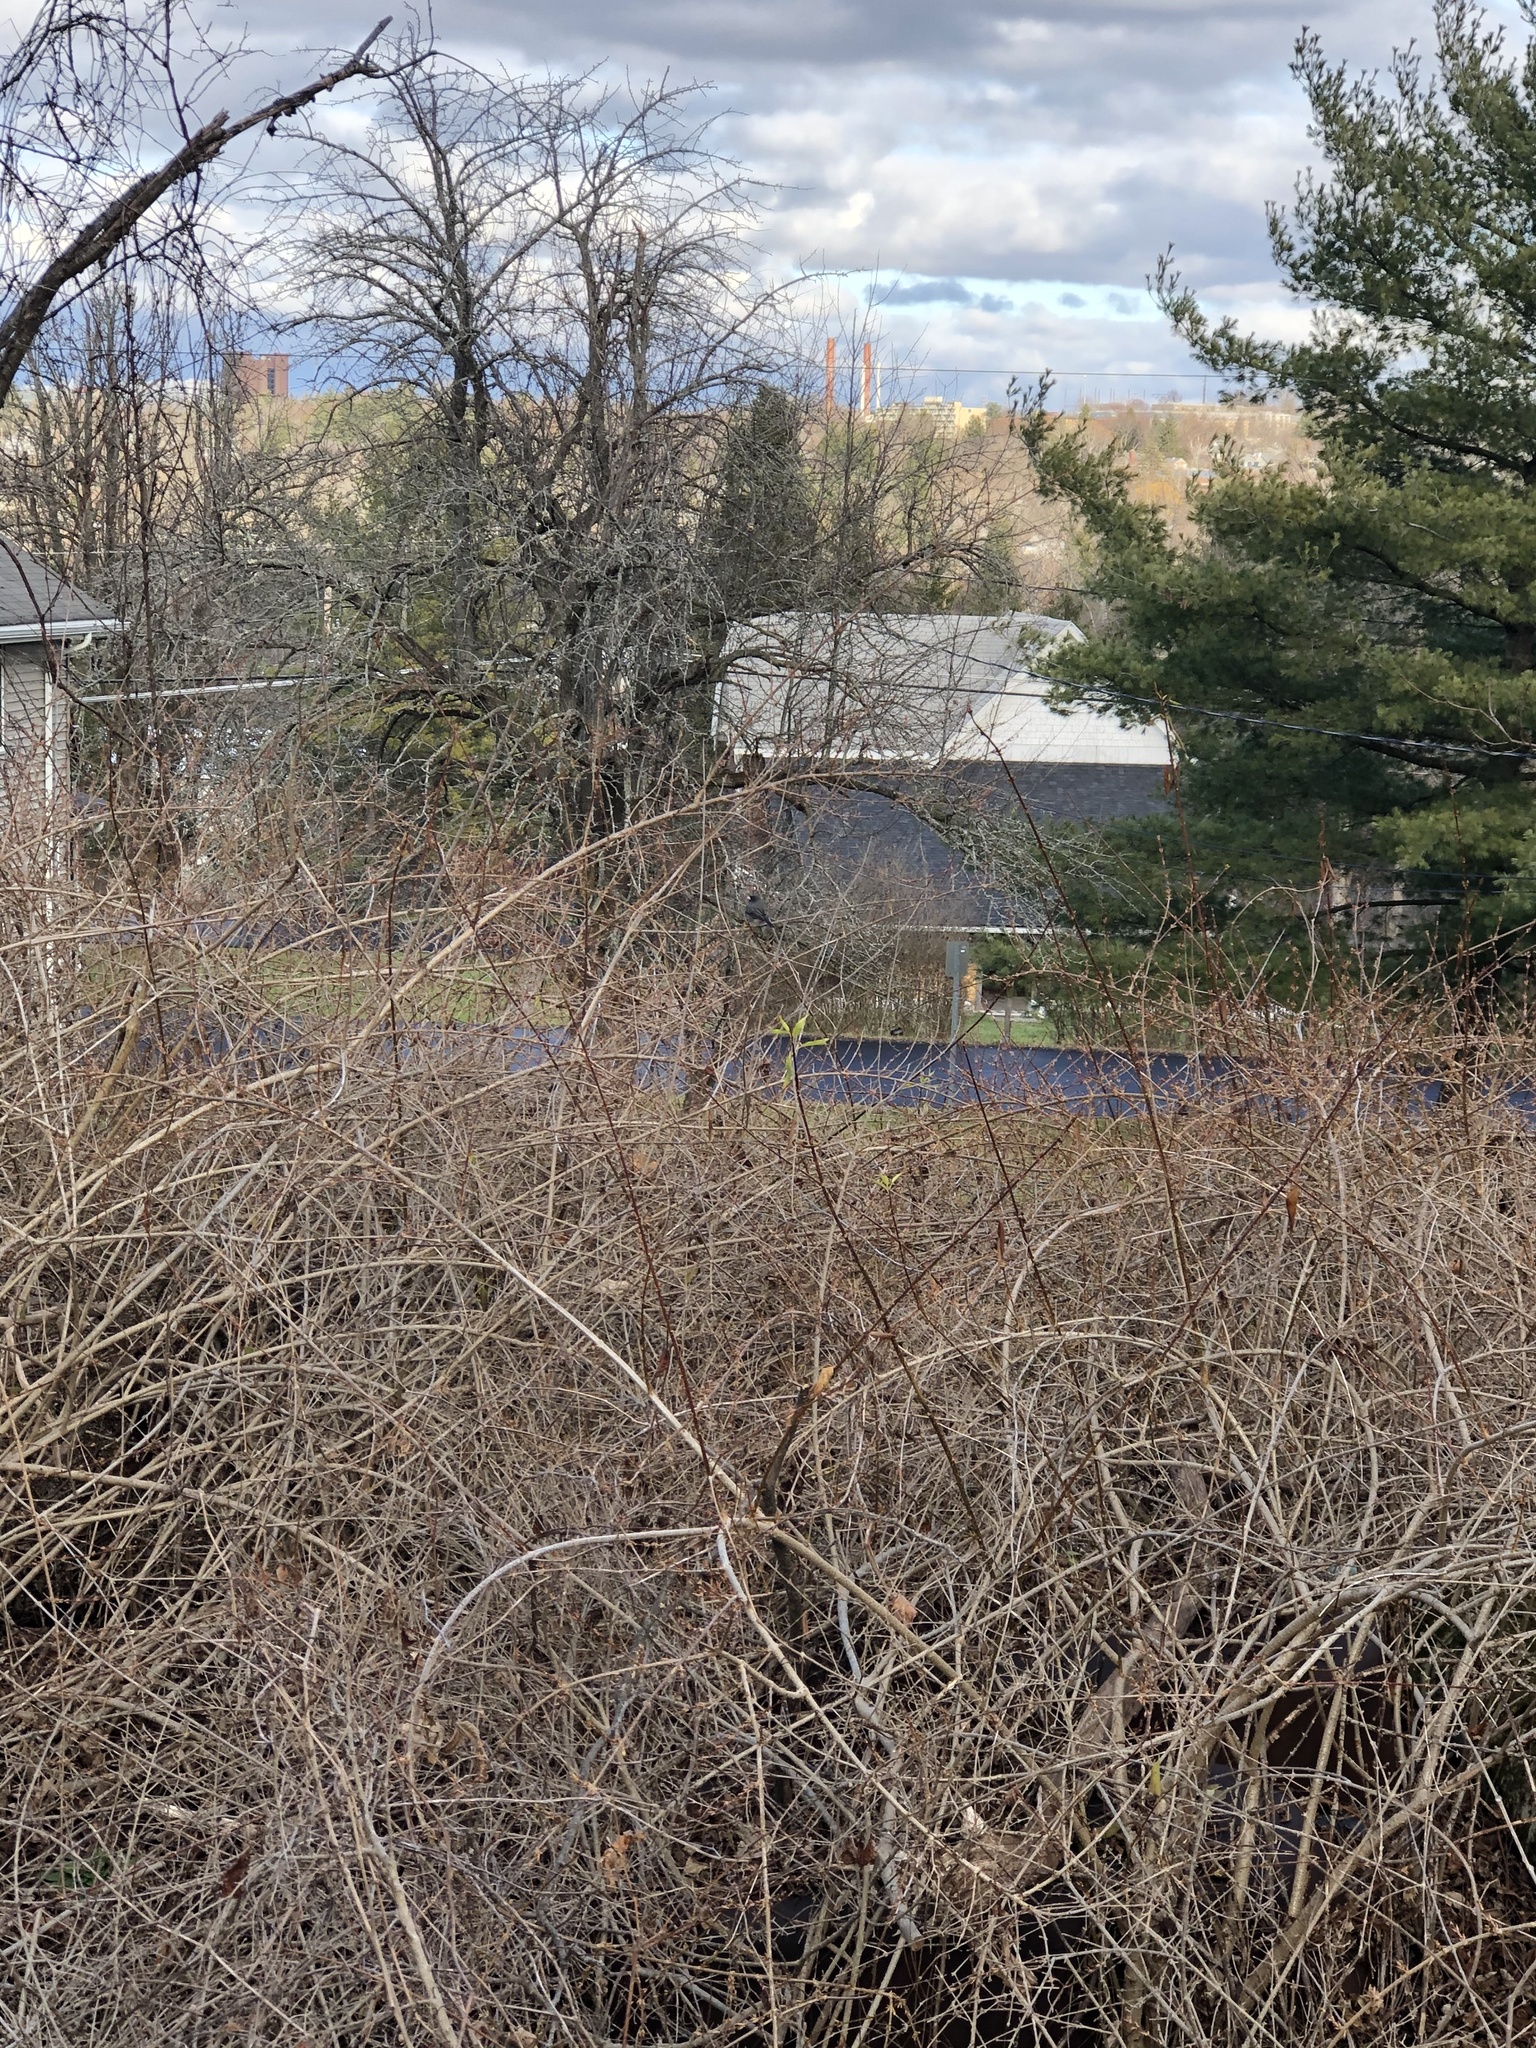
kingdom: Animalia
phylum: Chordata
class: Aves
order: Passeriformes
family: Passerellidae
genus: Junco
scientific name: Junco hyemalis
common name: Dark-eyed junco
